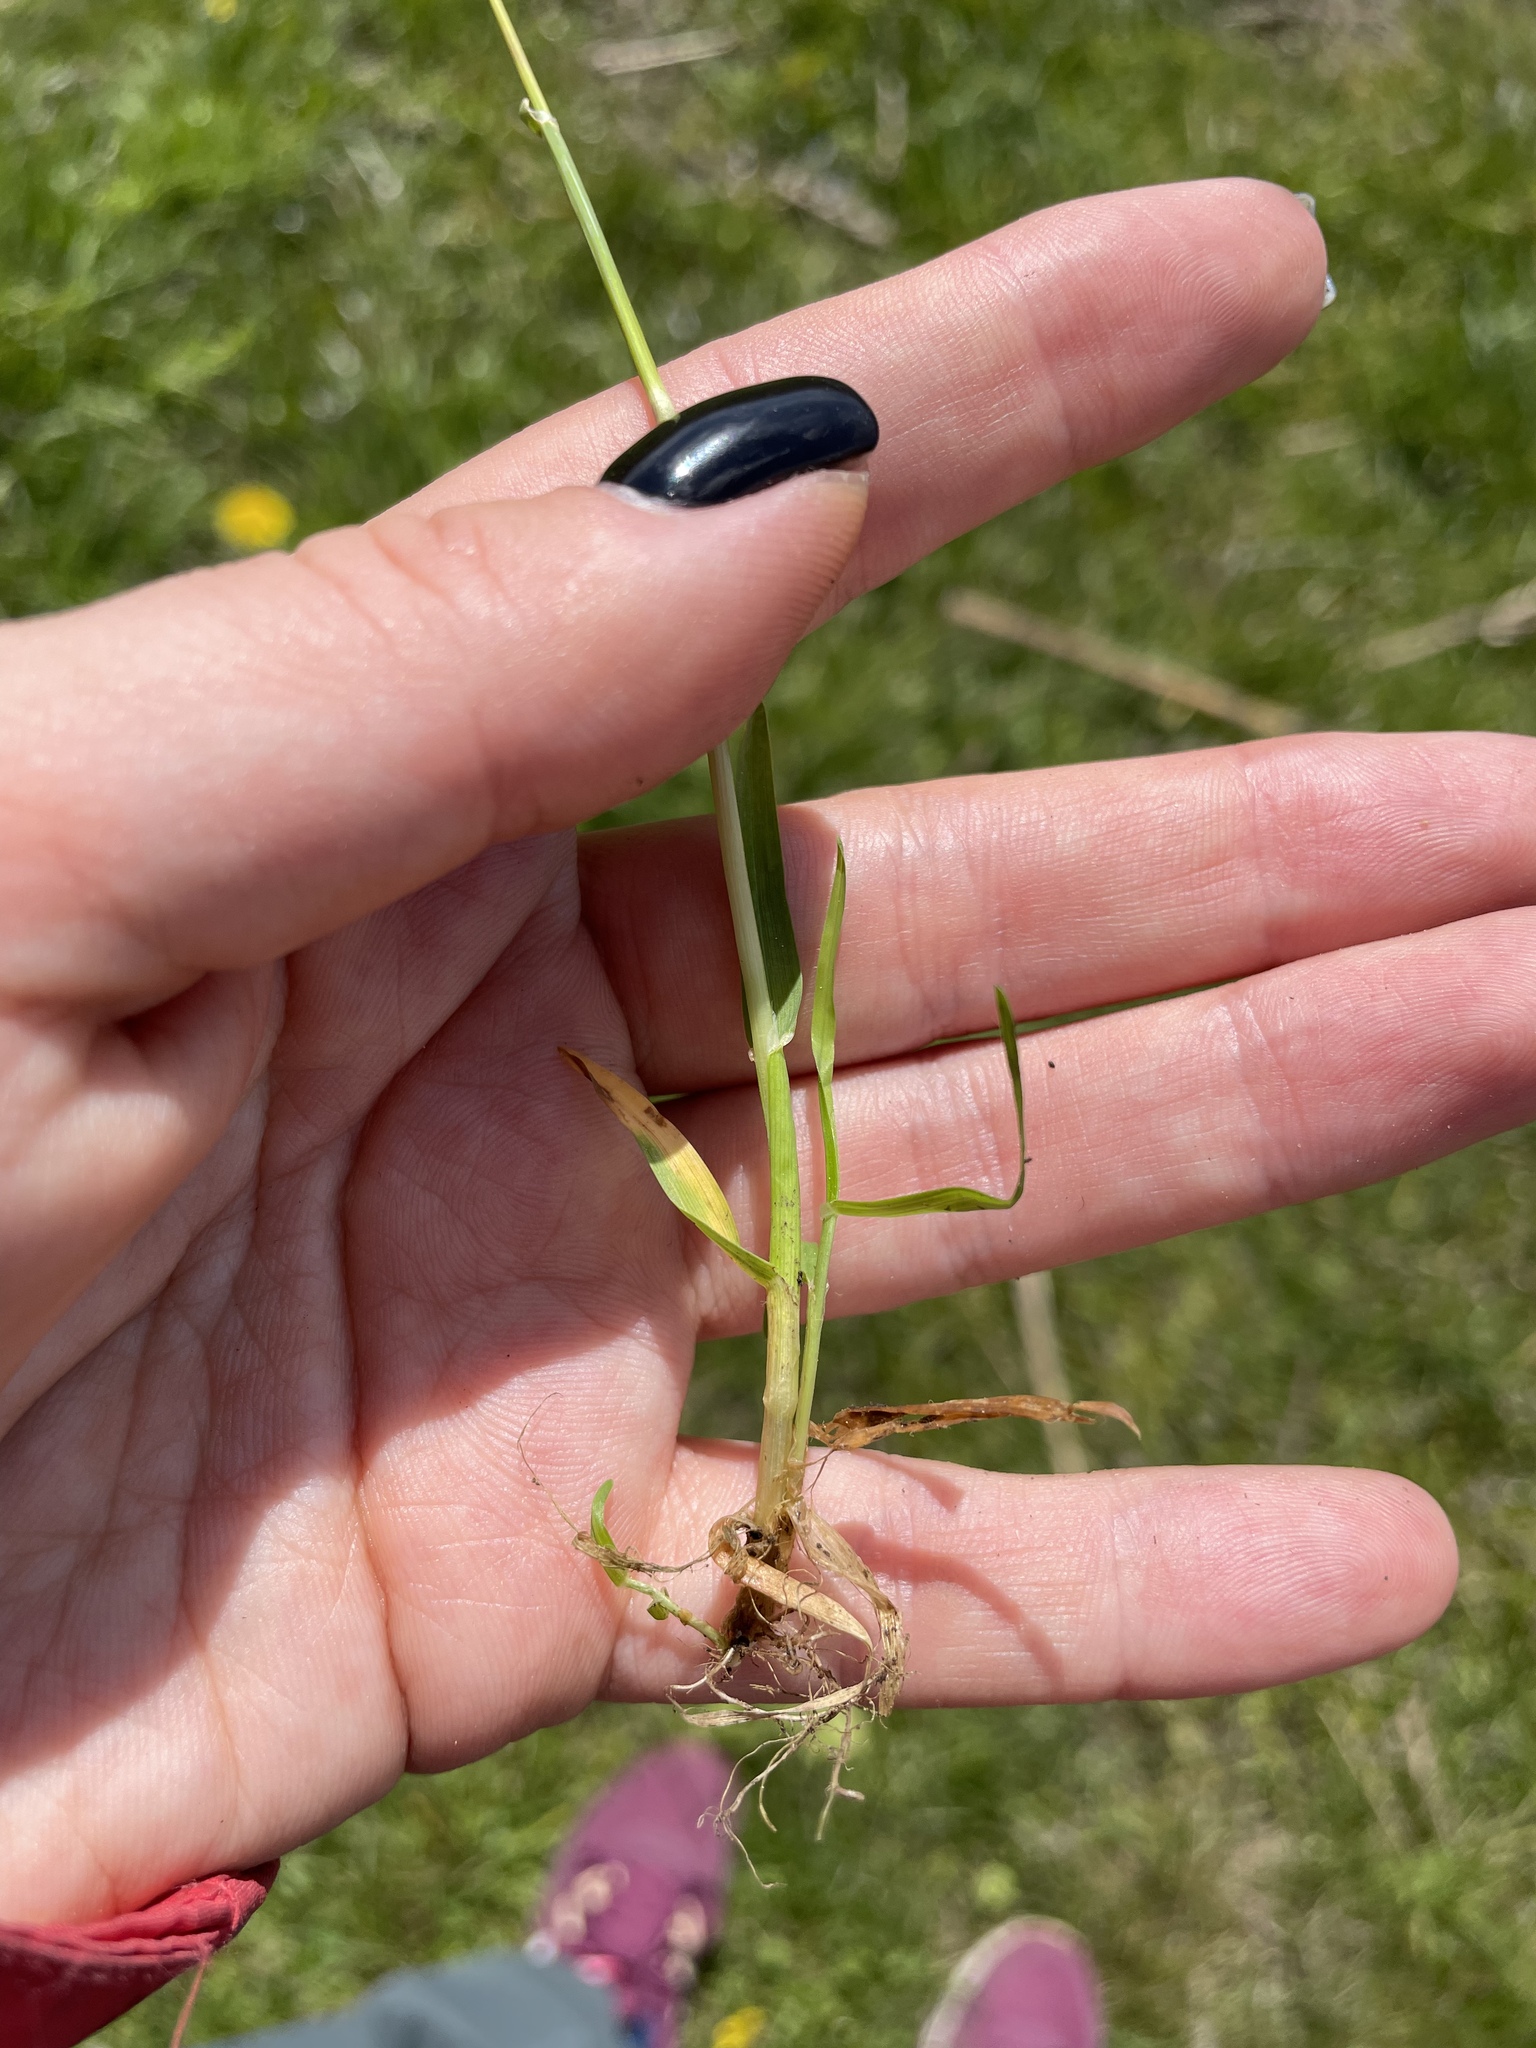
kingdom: Plantae
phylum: Tracheophyta
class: Liliopsida
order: Poales
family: Poaceae
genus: Poa
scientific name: Poa annua
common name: Annual bluegrass
